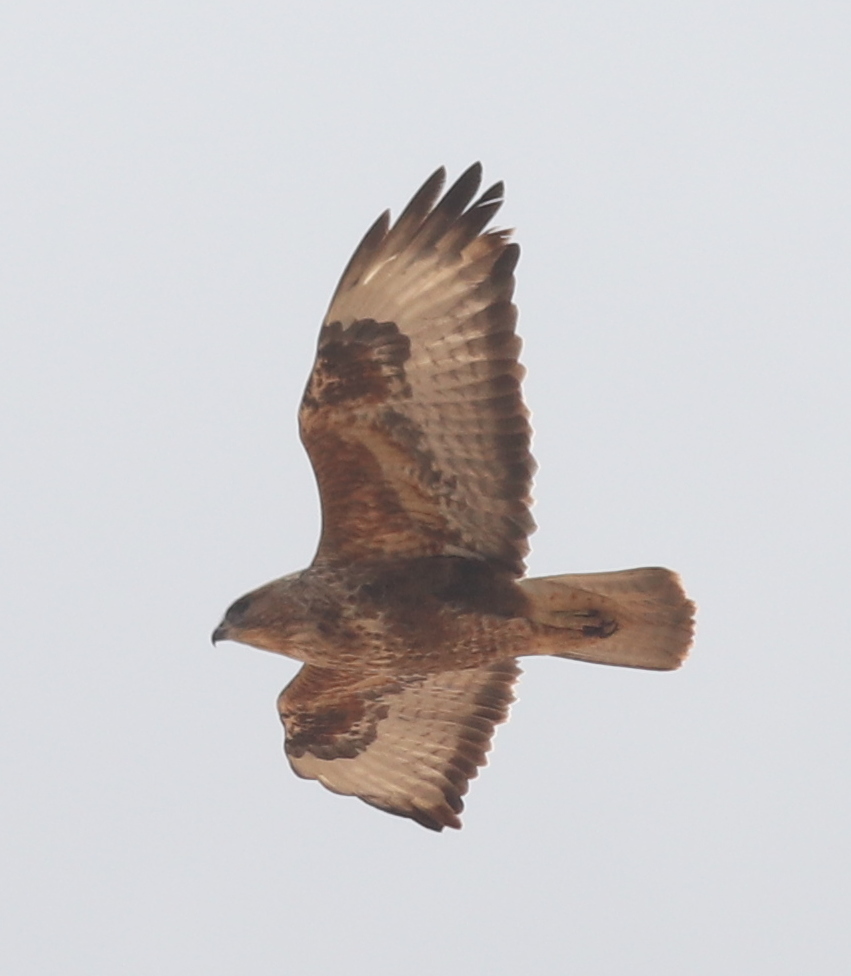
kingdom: Animalia
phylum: Chordata
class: Aves
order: Accipitriformes
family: Accipitridae
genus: Buteo
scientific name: Buteo buteo
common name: Common buzzard
